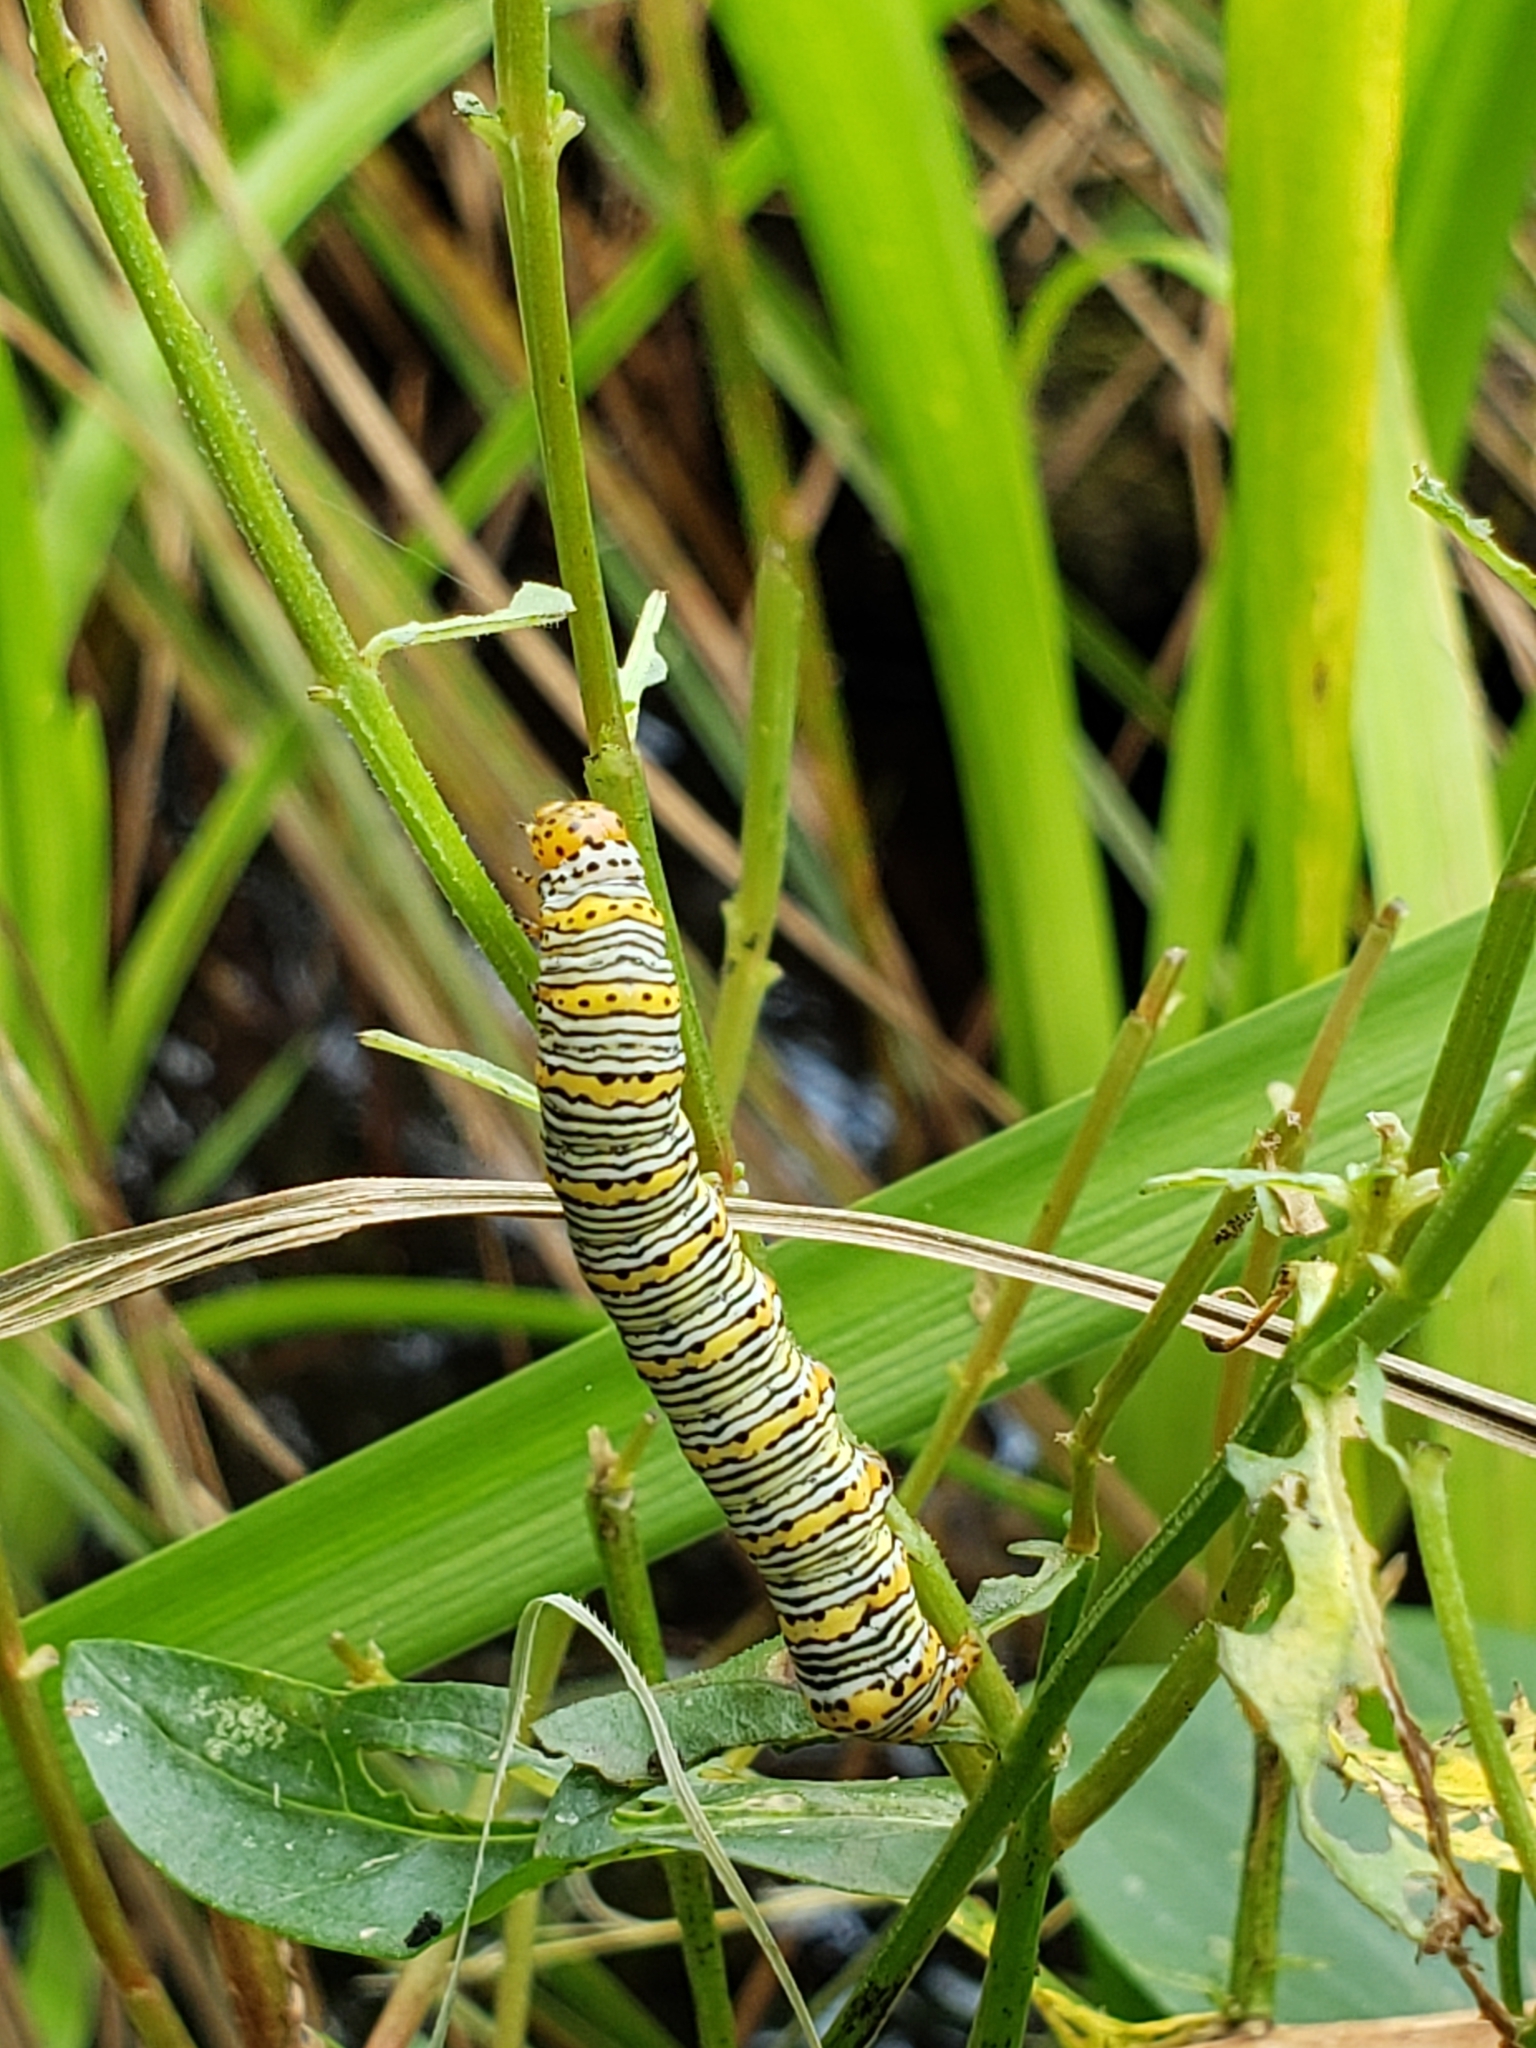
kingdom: Animalia
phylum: Arthropoda
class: Insecta
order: Lepidoptera
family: Noctuidae
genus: Eudryas
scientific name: Eudryas unio
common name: Pearly wood-nymph
